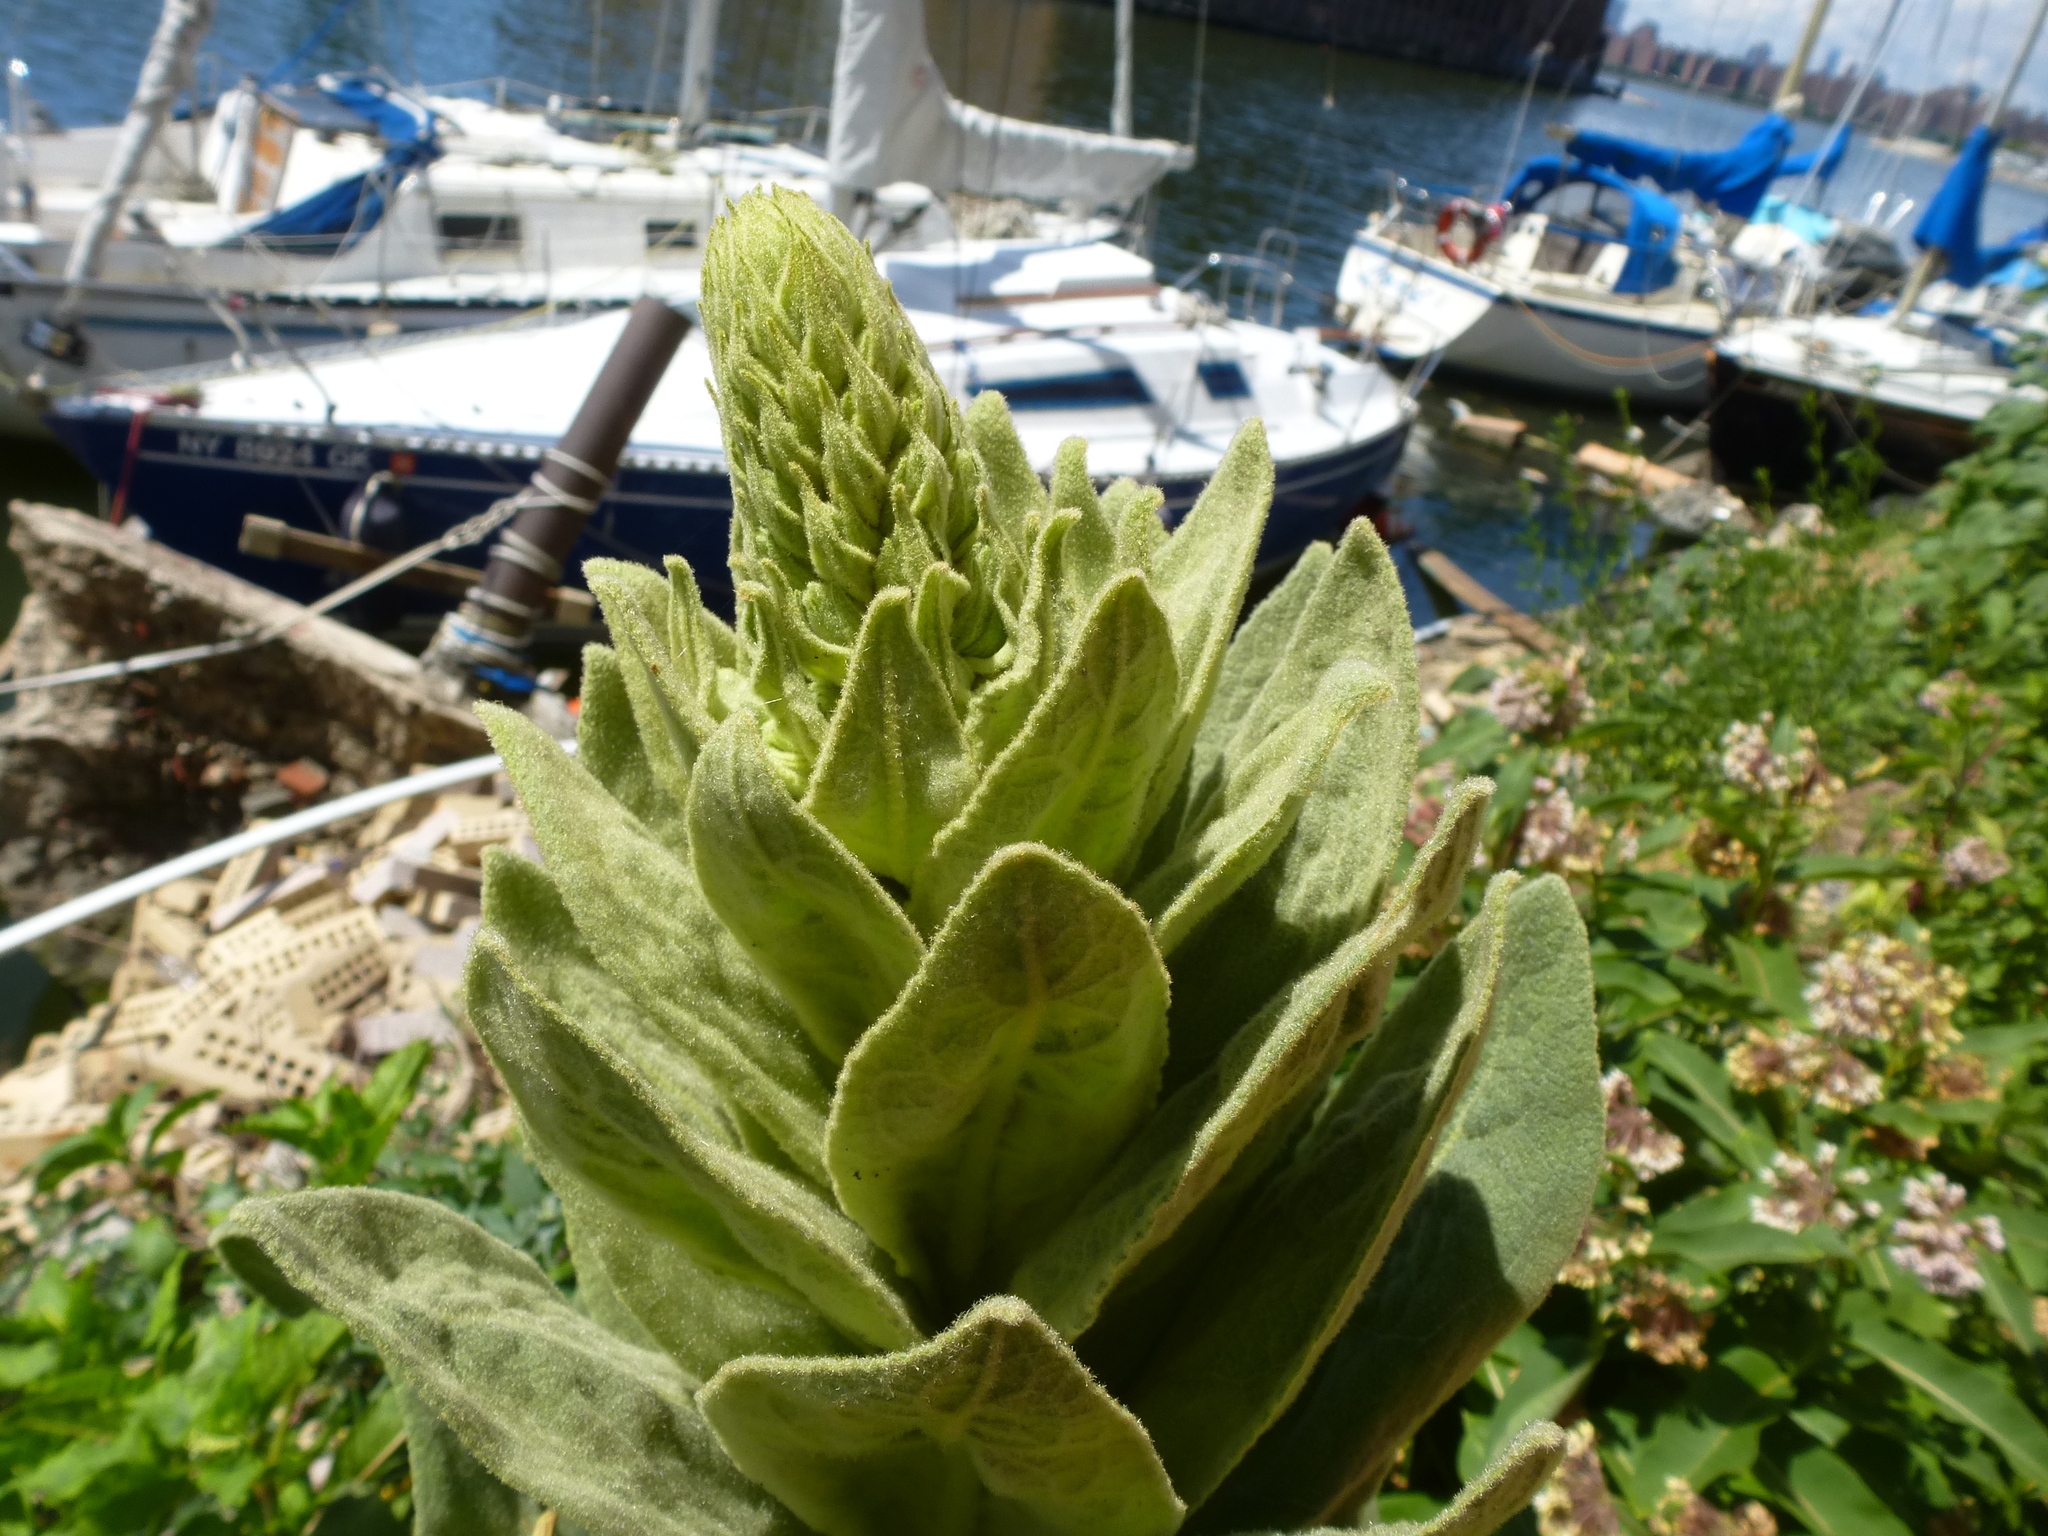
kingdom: Plantae
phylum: Tracheophyta
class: Magnoliopsida
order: Lamiales
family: Scrophulariaceae
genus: Verbascum
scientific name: Verbascum thapsus
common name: Common mullein
